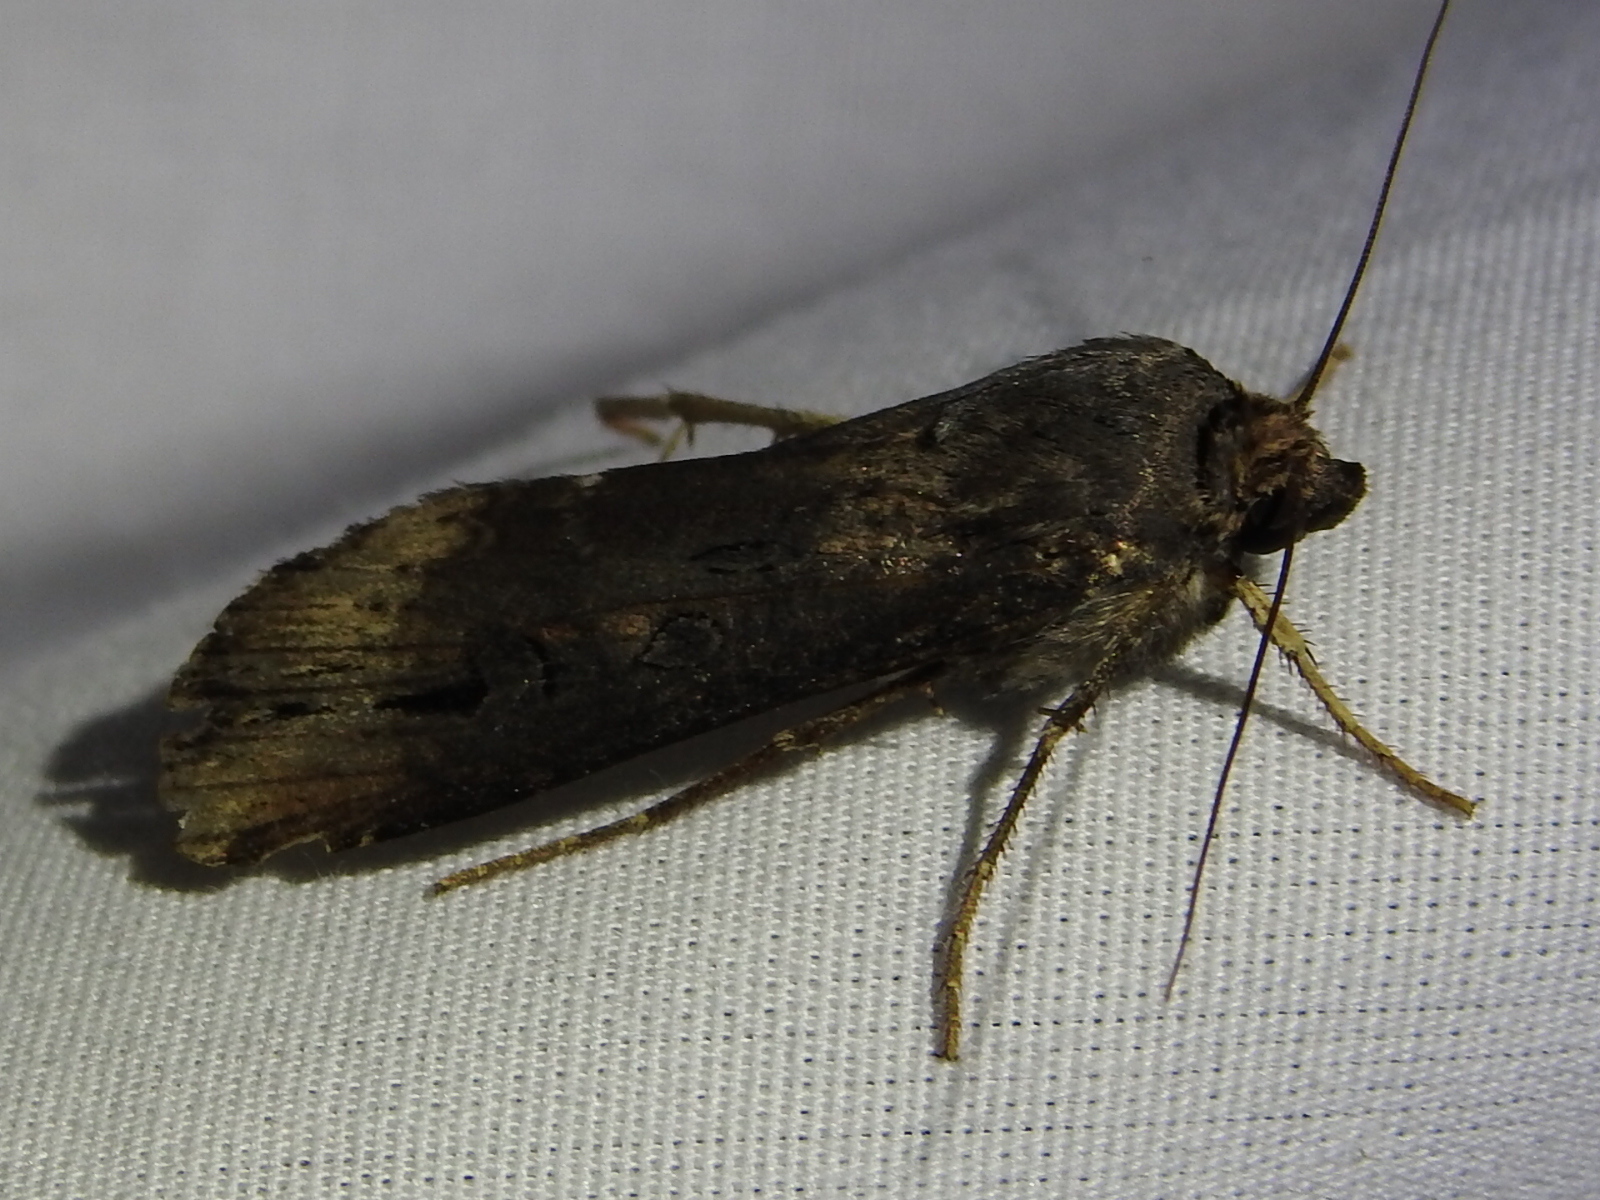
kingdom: Animalia
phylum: Arthropoda
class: Insecta
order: Lepidoptera
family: Noctuidae
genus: Agrotis
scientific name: Agrotis ipsilon
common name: Dark sword-grass
